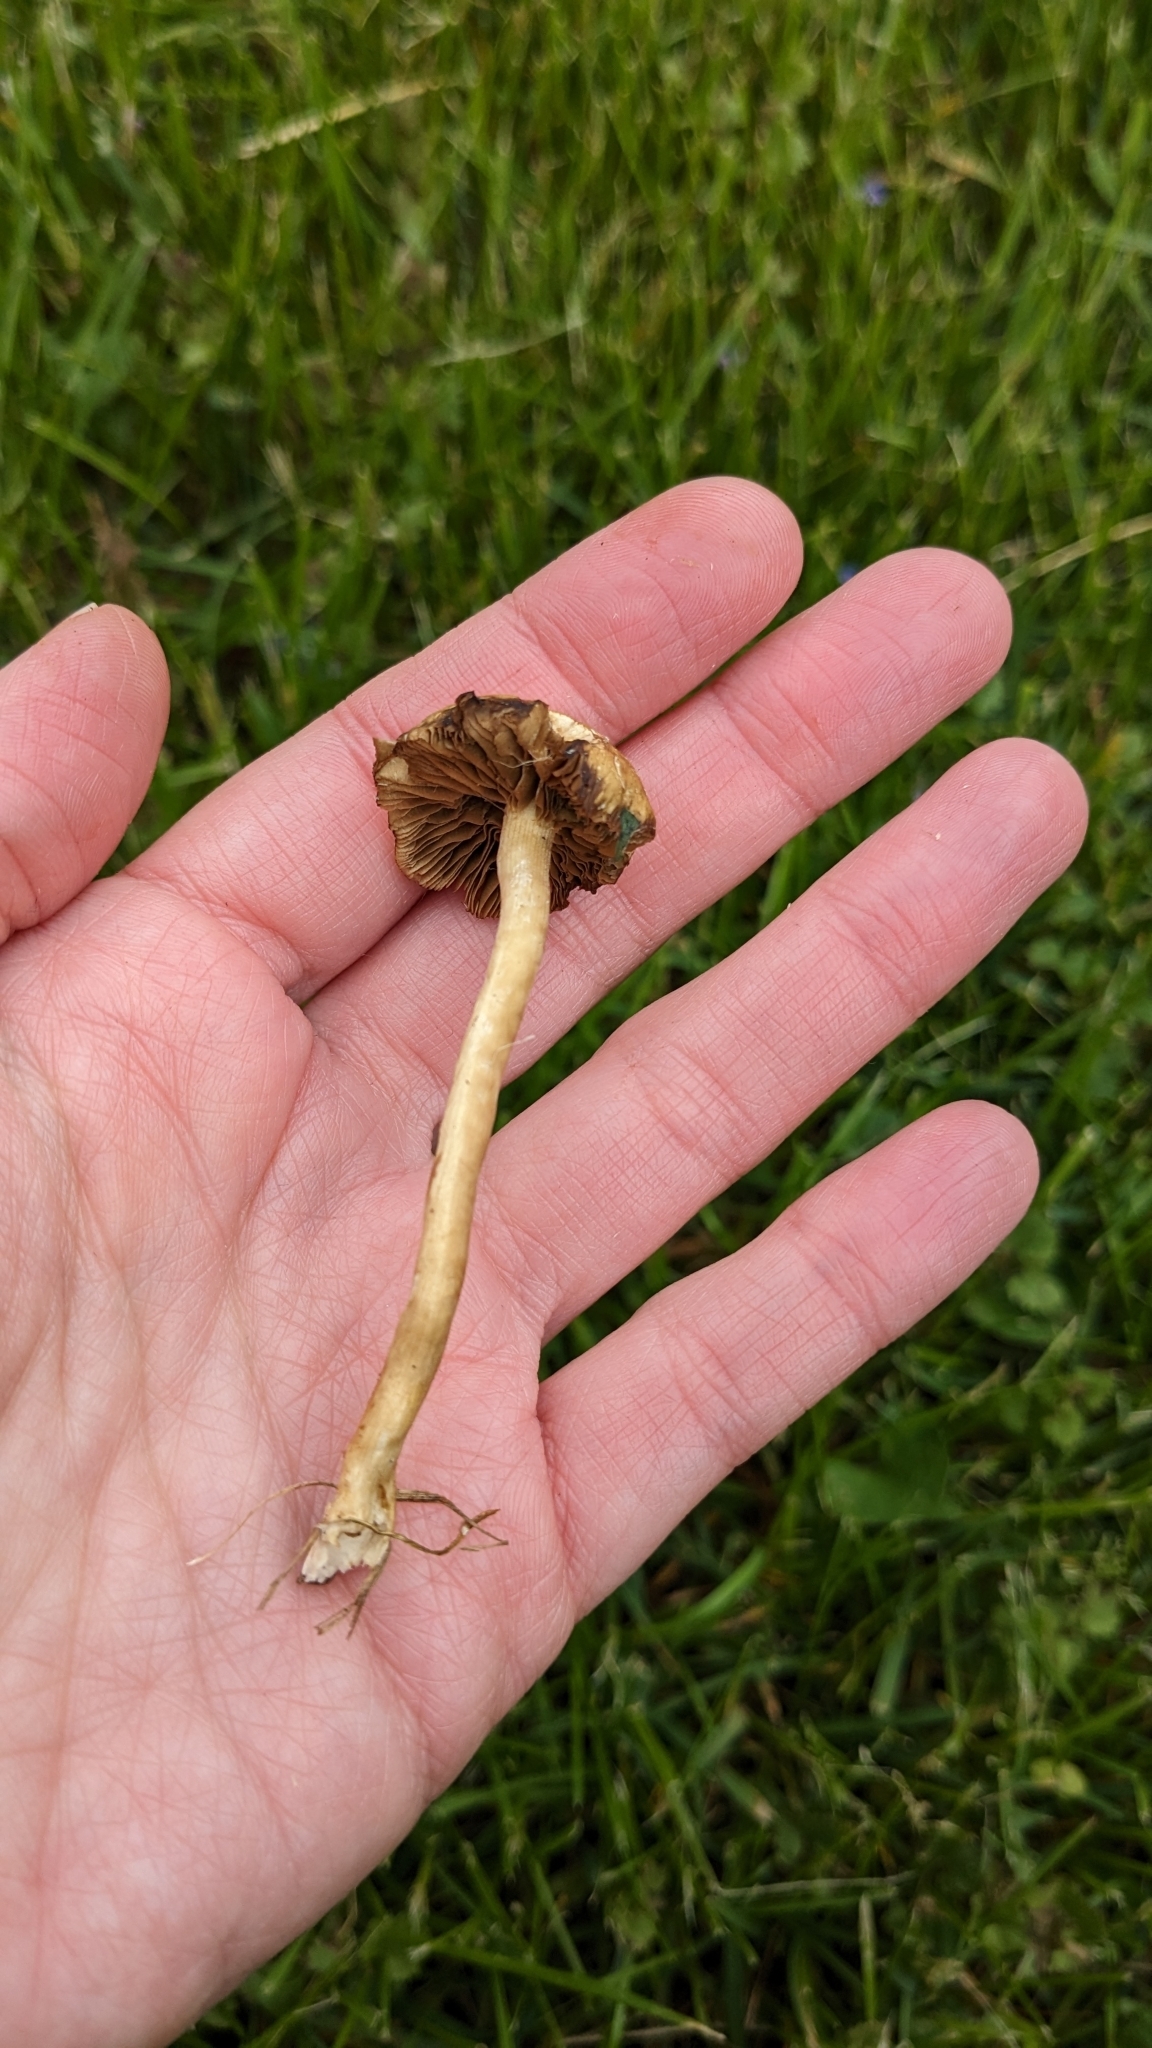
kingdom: Fungi
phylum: Basidiomycota
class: Agaricomycetes
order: Agaricales
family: Strophariaceae
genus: Agrocybe
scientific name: Agrocybe humosa
